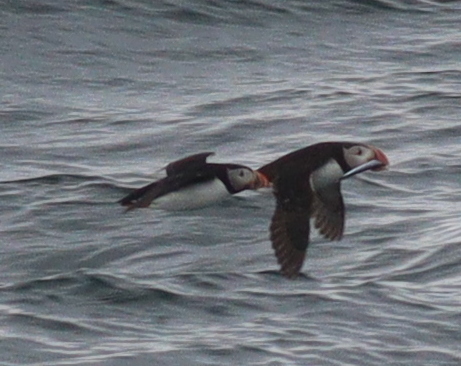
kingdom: Animalia
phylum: Chordata
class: Aves
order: Charadriiformes
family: Alcidae
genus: Fratercula
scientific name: Fratercula arctica
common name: Atlantic puffin
